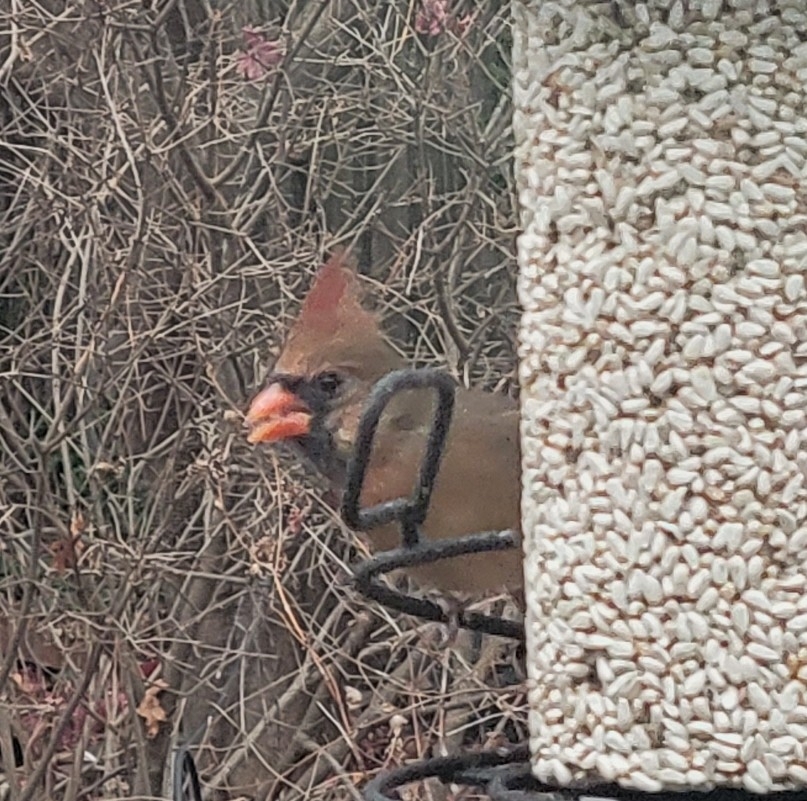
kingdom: Animalia
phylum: Chordata
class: Aves
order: Passeriformes
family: Cardinalidae
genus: Cardinalis
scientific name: Cardinalis cardinalis
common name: Northern cardinal
